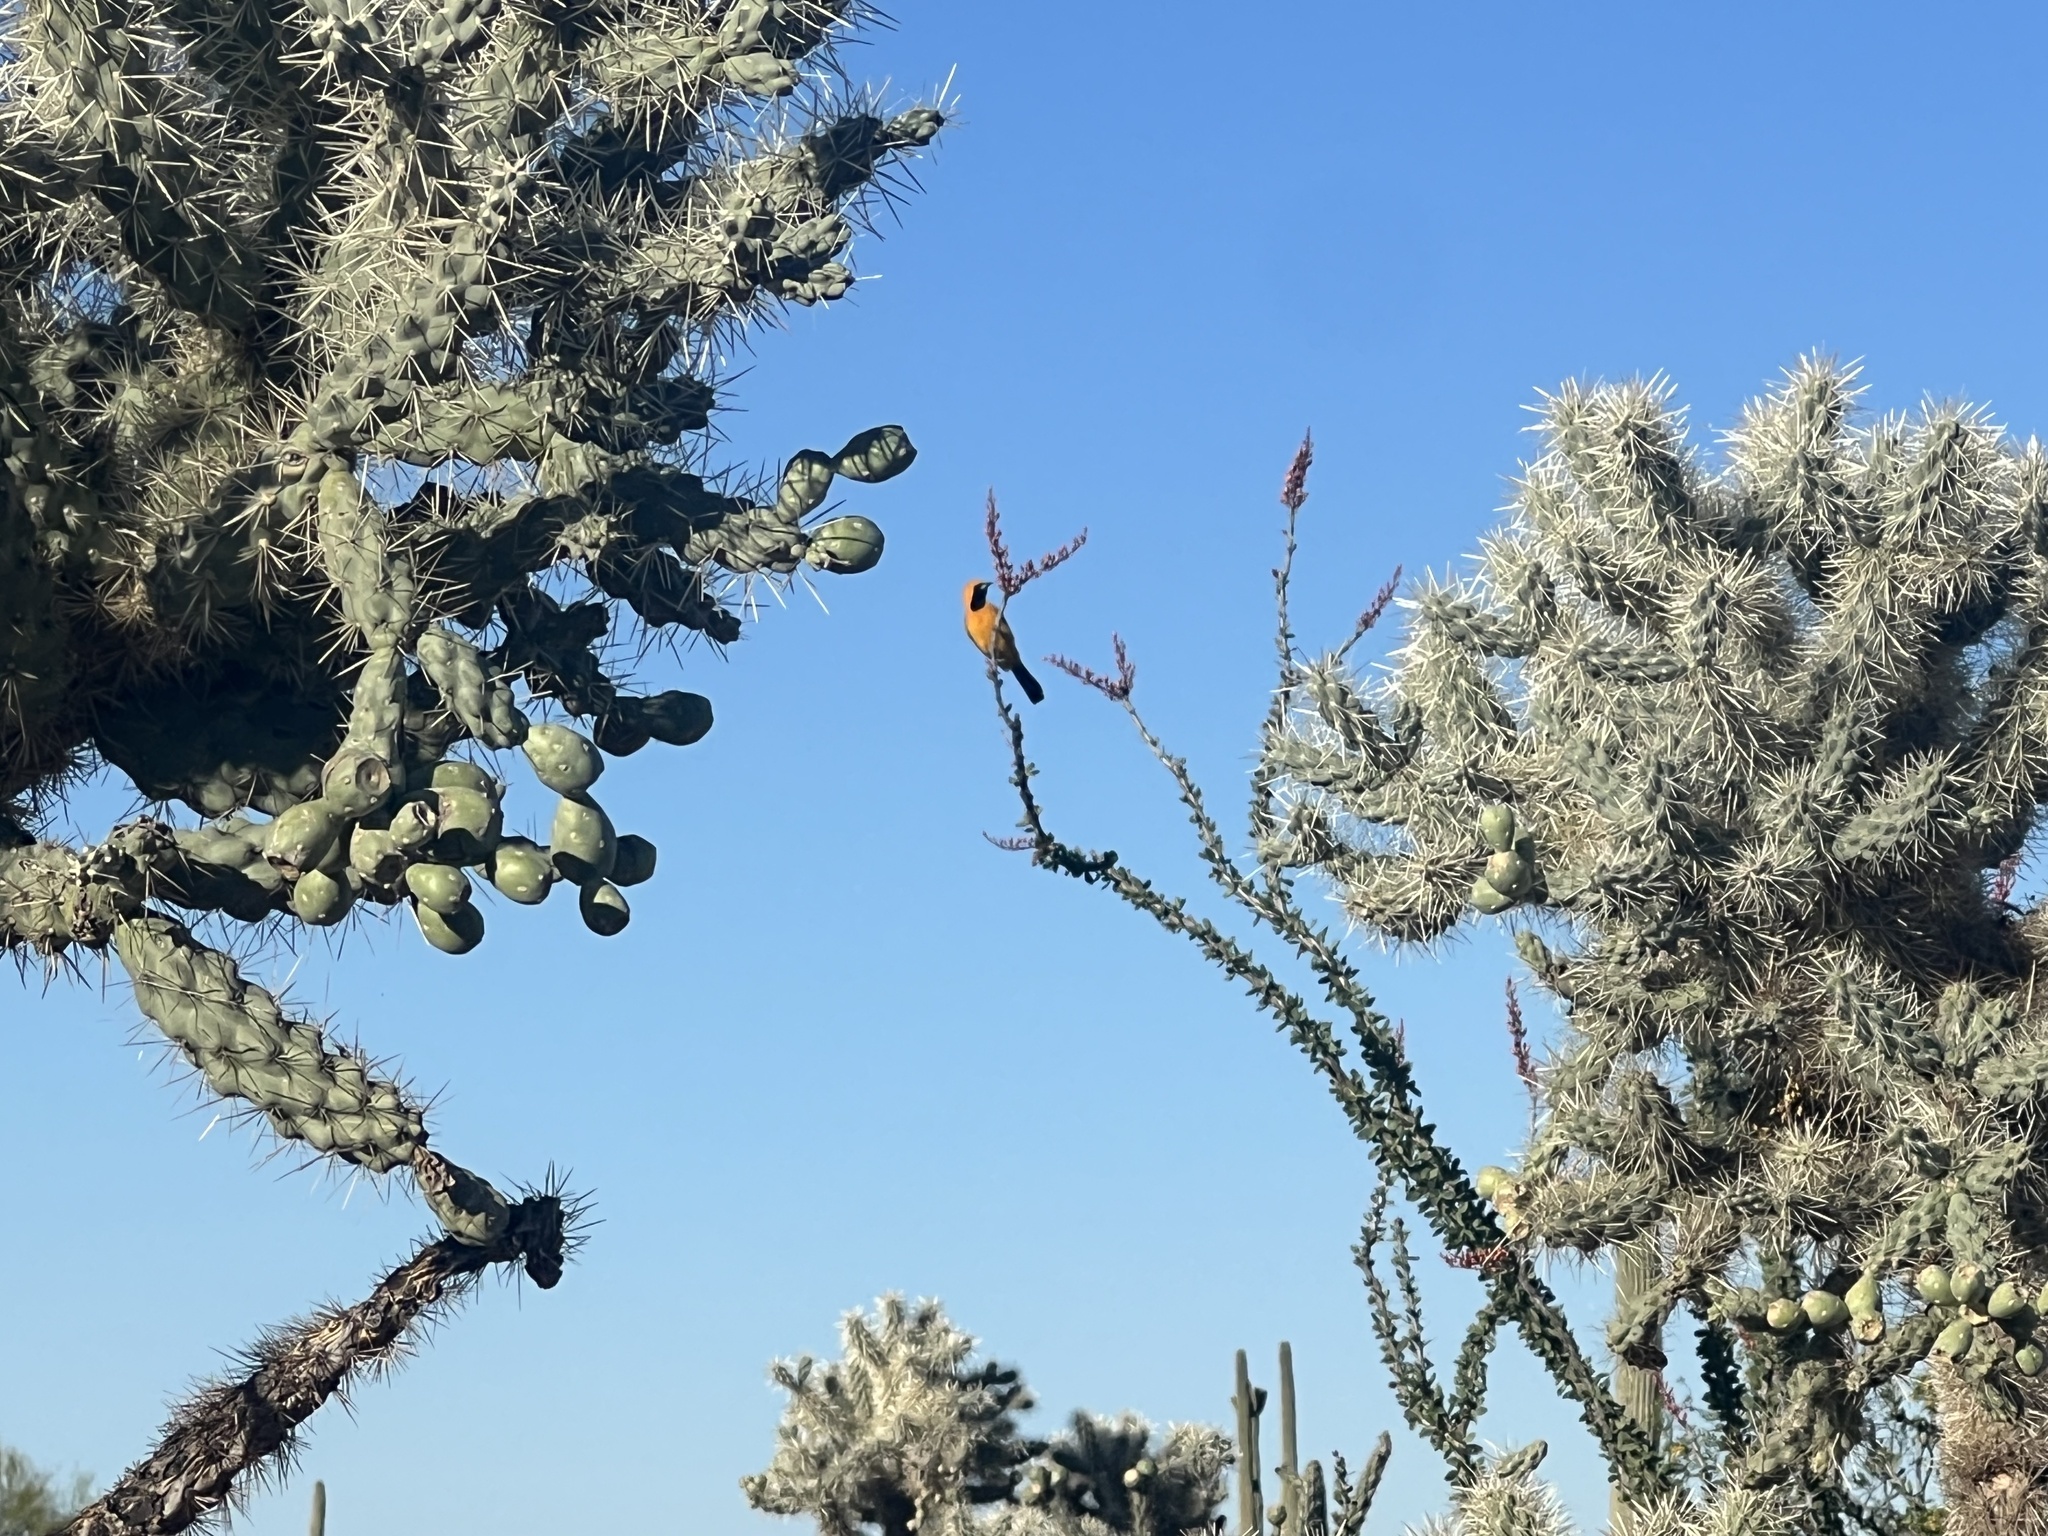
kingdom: Animalia
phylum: Chordata
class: Aves
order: Passeriformes
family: Icteridae
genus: Icterus
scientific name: Icterus cucullatus
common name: Hooded oriole
